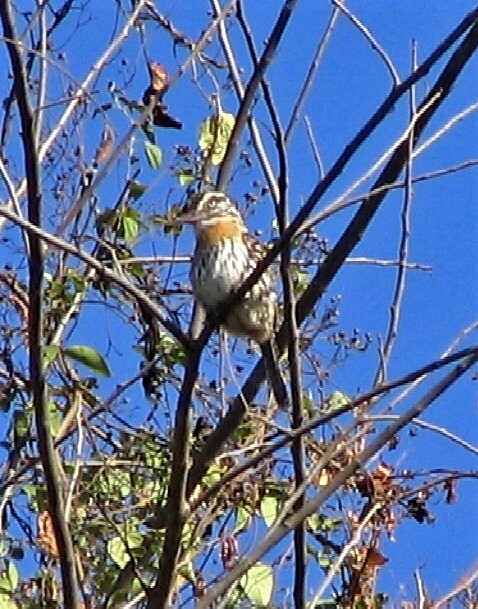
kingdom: Animalia
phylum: Chordata
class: Aves
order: Piciformes
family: Bucconidae
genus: Nystalus
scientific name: Nystalus maculatus
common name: Caatinga puffbird
